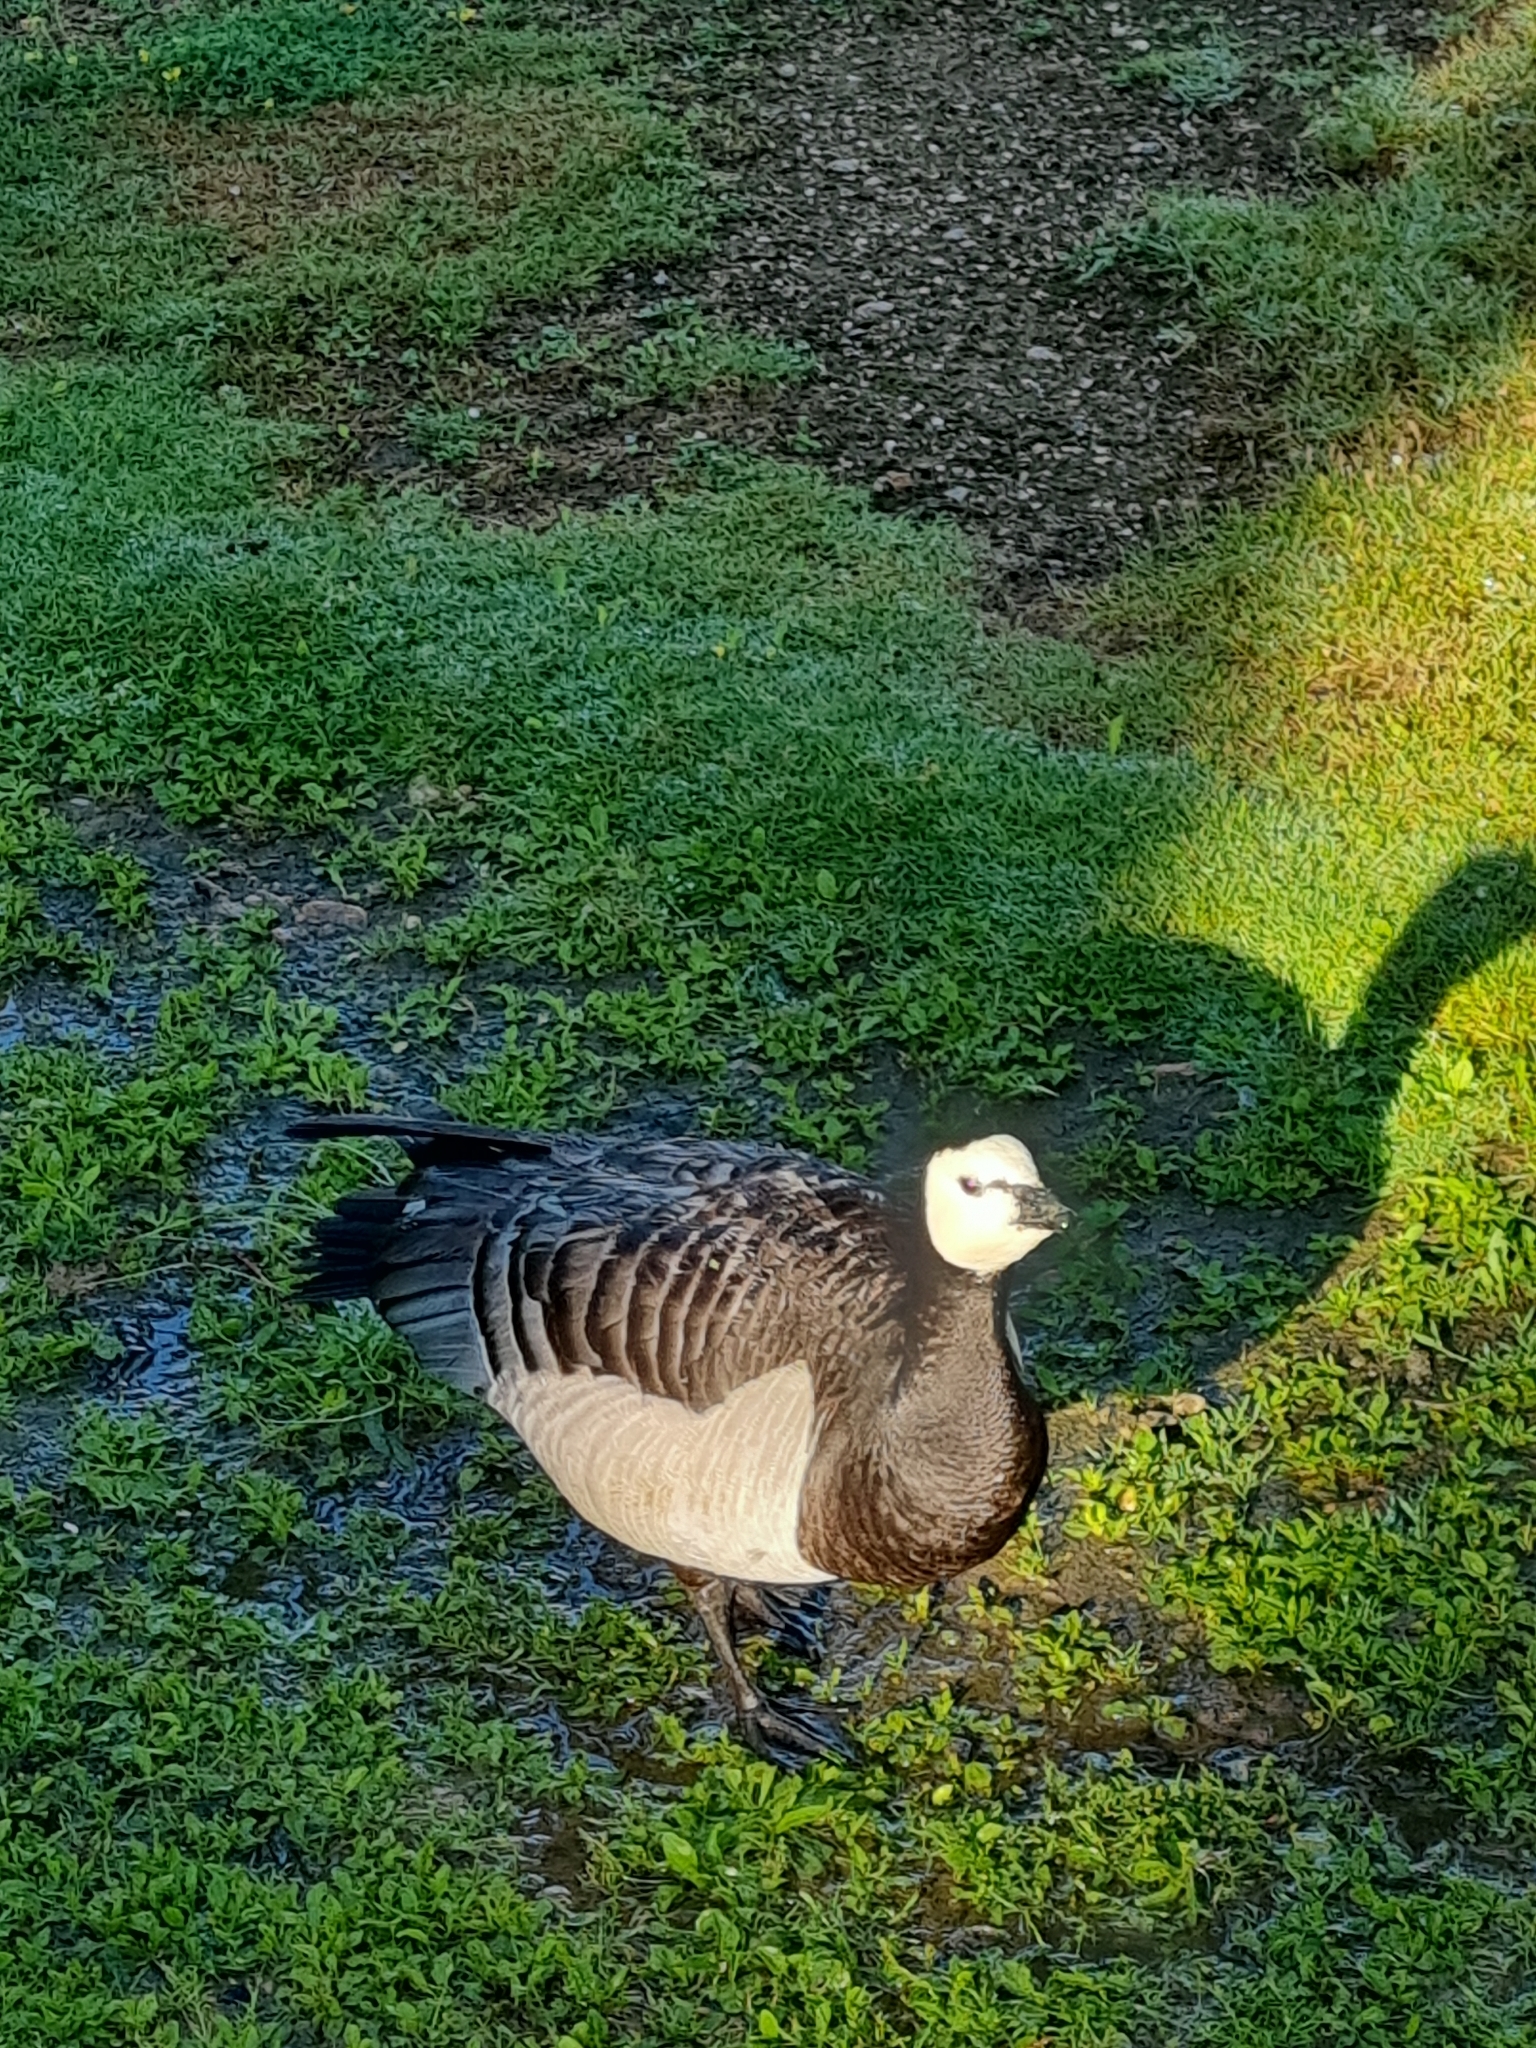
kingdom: Animalia
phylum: Chordata
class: Aves
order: Anseriformes
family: Anatidae
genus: Branta
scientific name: Branta leucopsis
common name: Barnacle goose
